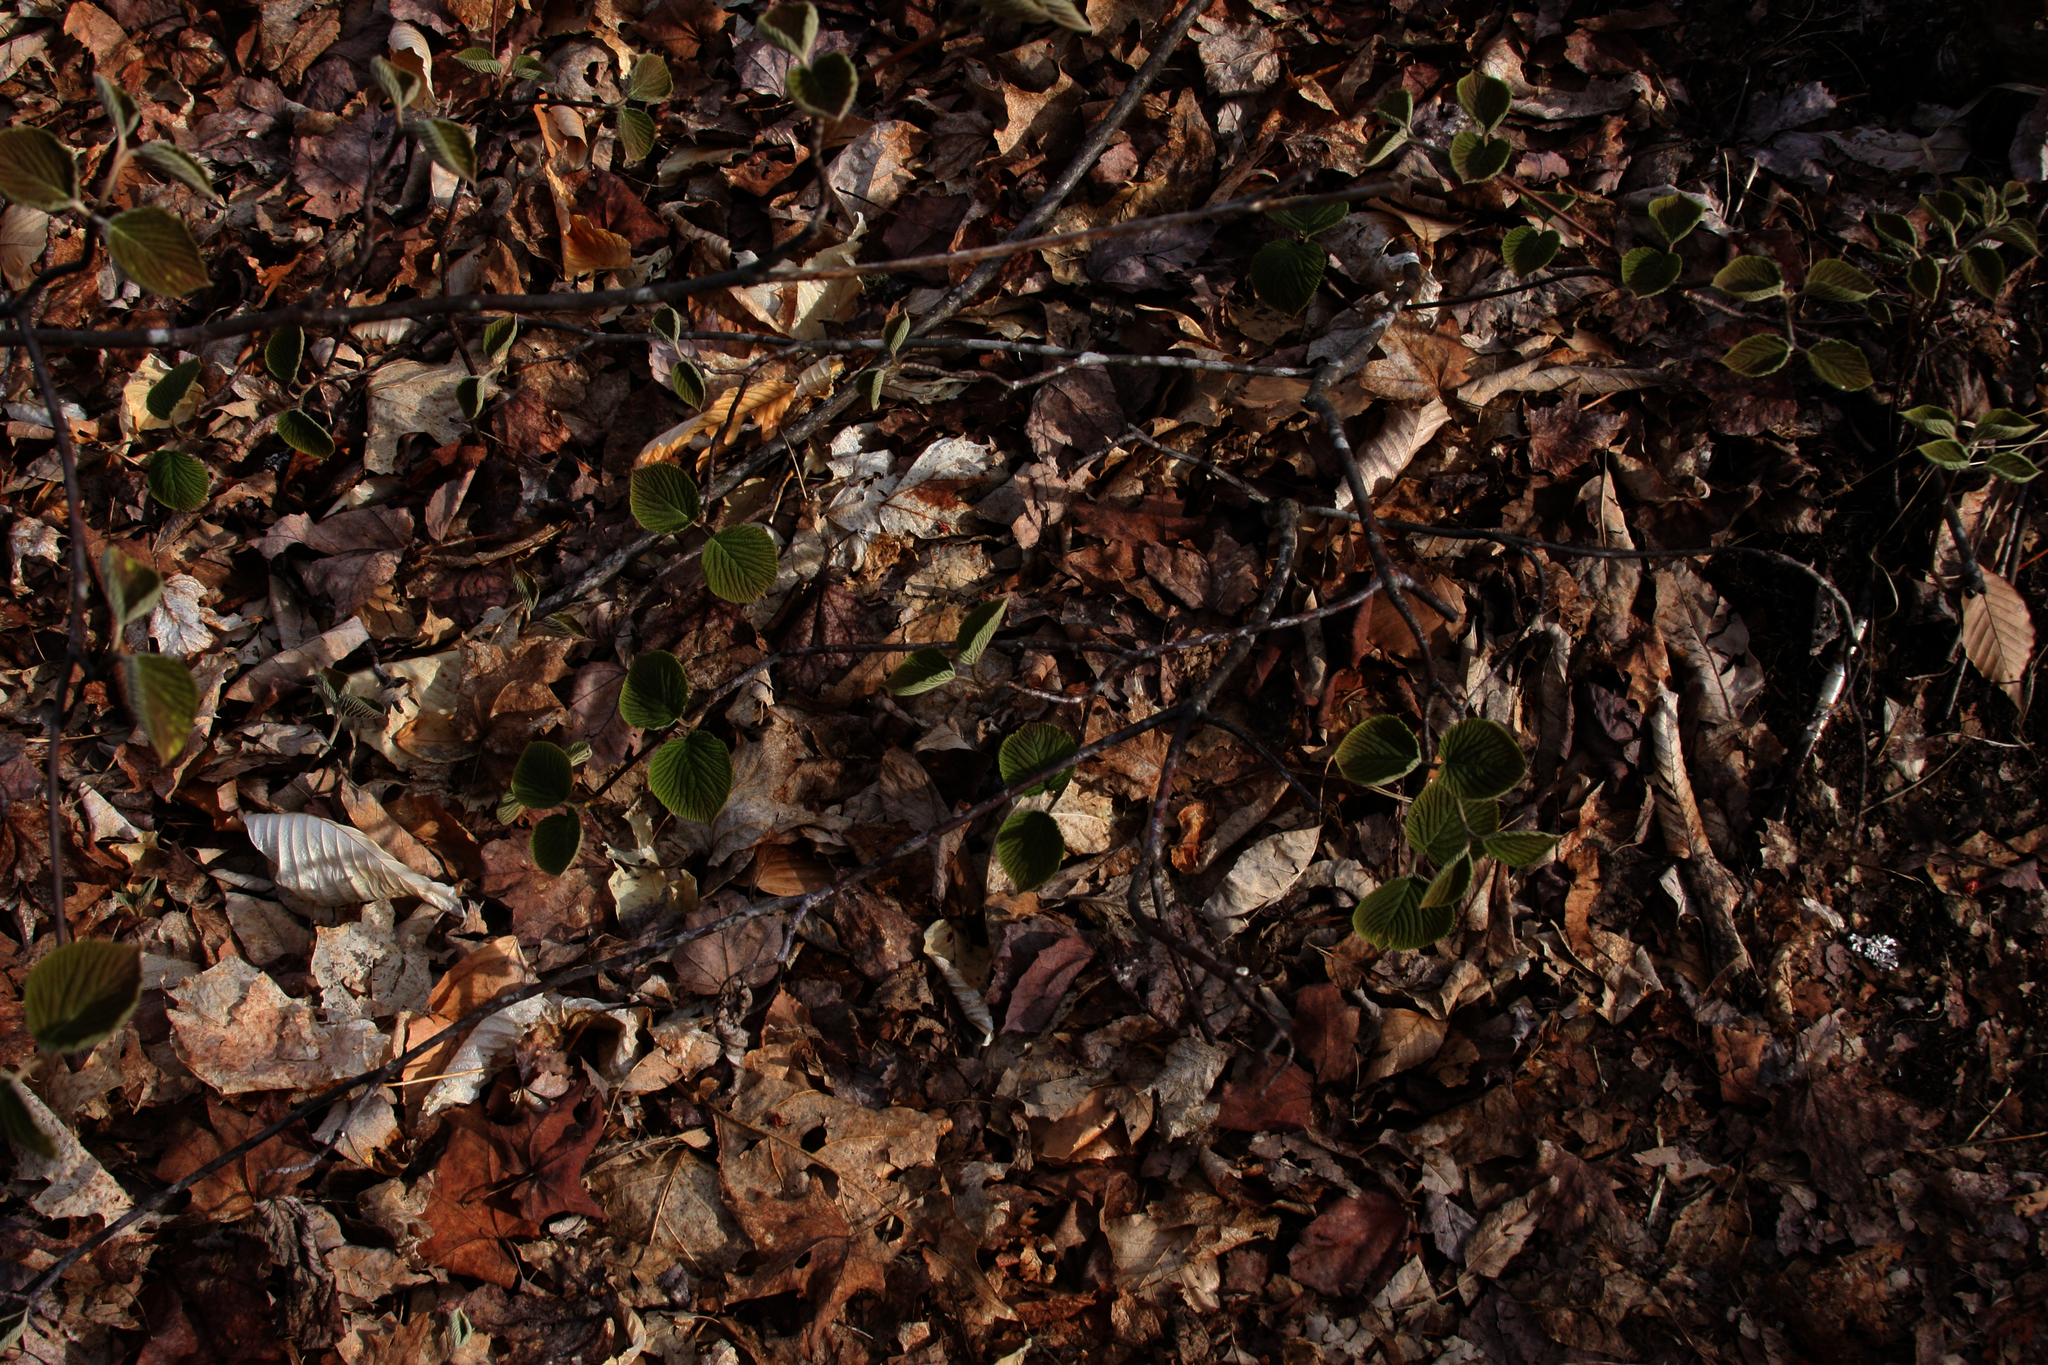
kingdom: Plantae
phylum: Tracheophyta
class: Magnoliopsida
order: Dipsacales
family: Viburnaceae
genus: Viburnum
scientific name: Viburnum lantanoides
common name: Hobblebush
